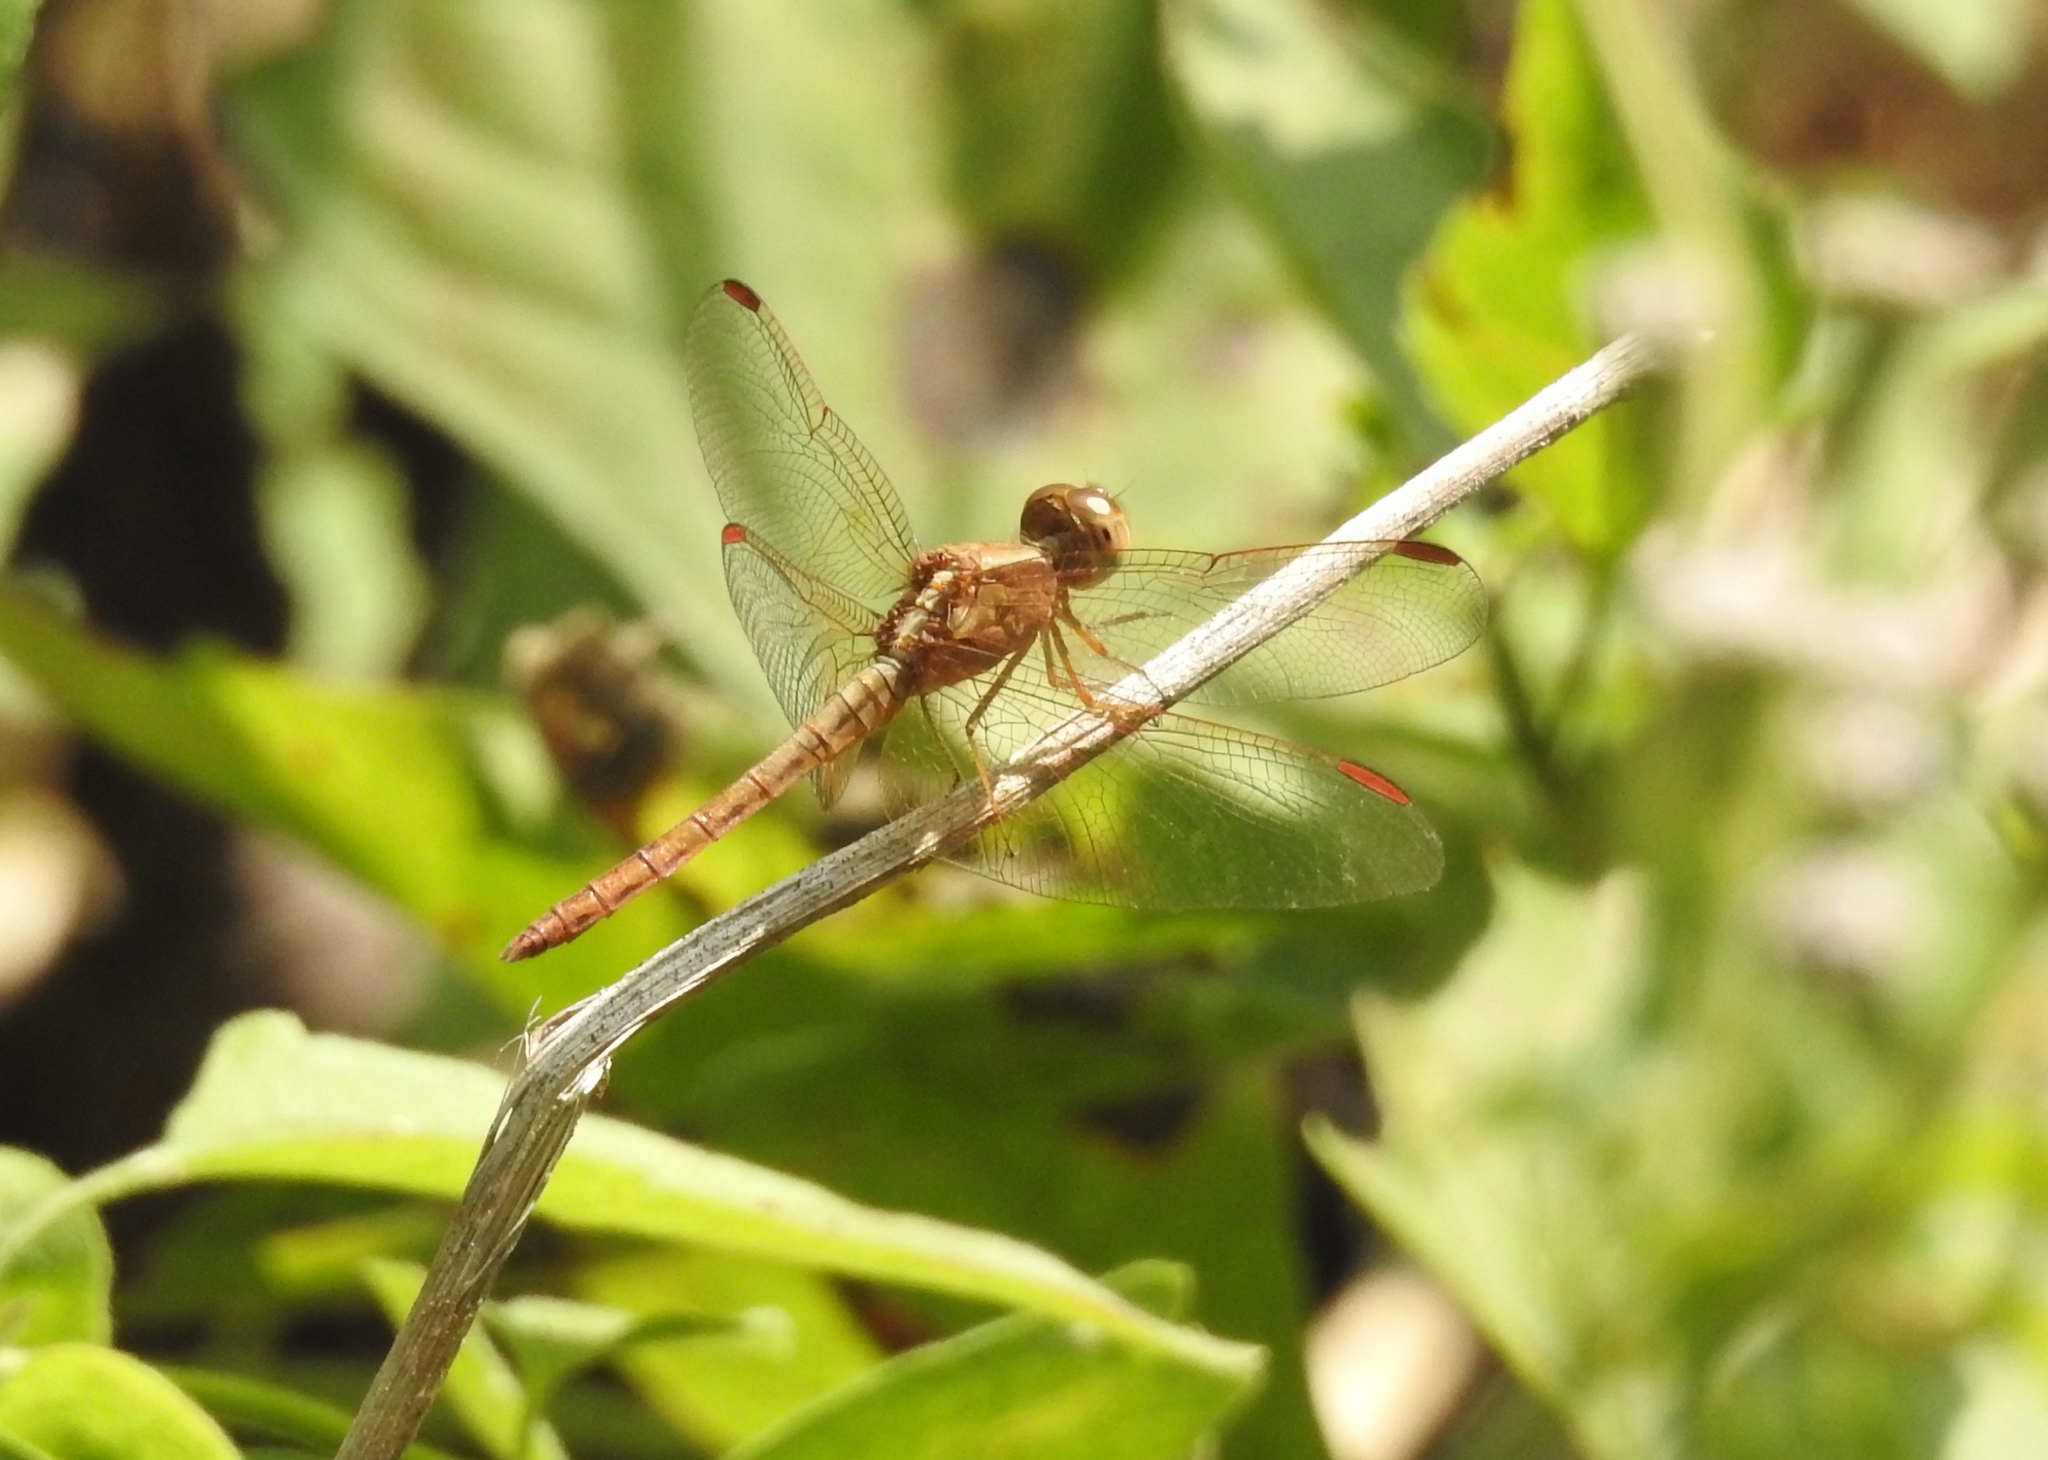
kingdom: Animalia
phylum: Arthropoda
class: Insecta
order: Odonata
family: Libellulidae
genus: Neurothemis
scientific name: Neurothemis intermedia
